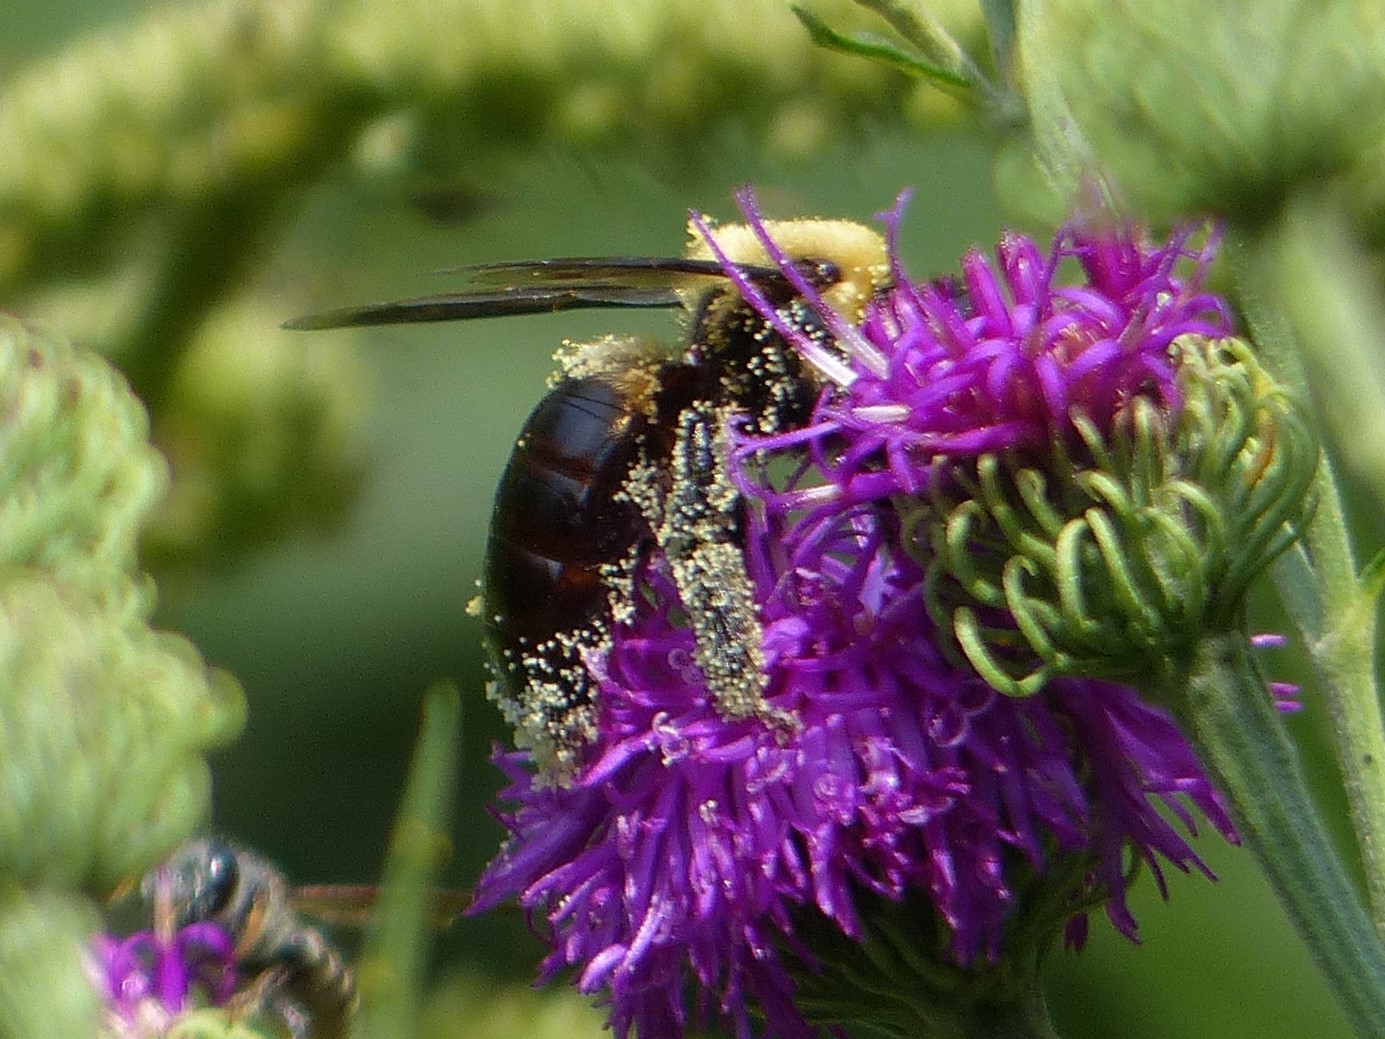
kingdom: Animalia
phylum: Arthropoda
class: Insecta
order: Hymenoptera
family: Apidae
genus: Xylocopa
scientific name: Xylocopa virginica
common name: Carpenter bee
